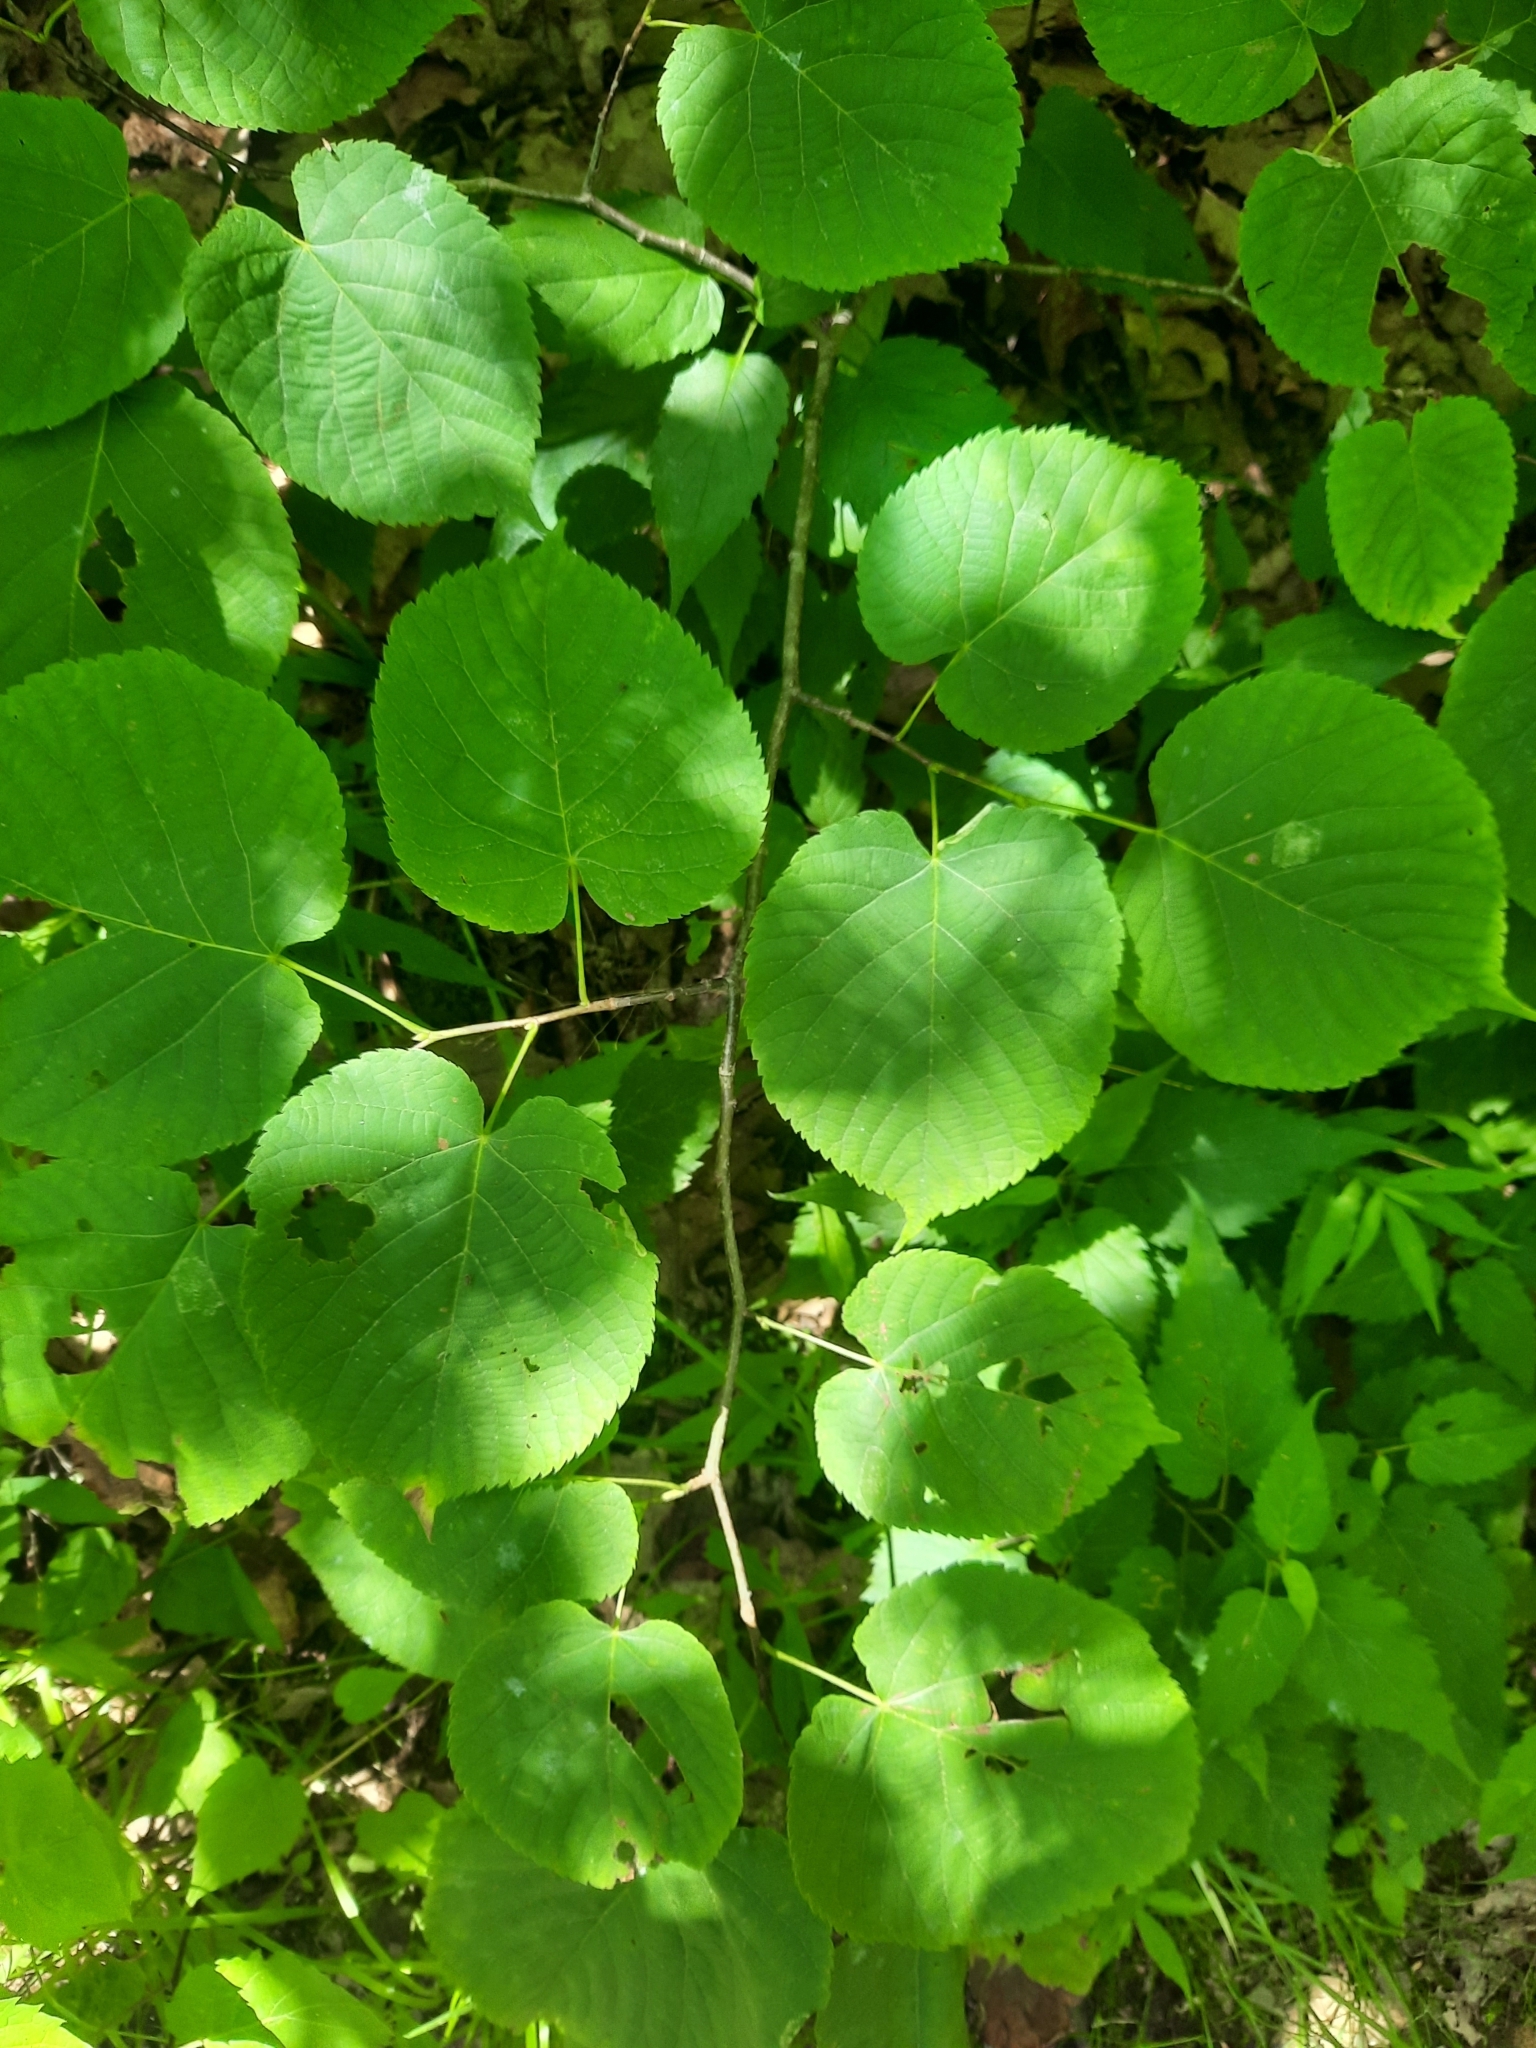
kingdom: Plantae
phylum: Tracheophyta
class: Magnoliopsida
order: Malvales
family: Malvaceae
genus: Tilia
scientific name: Tilia americana
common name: Basswood
